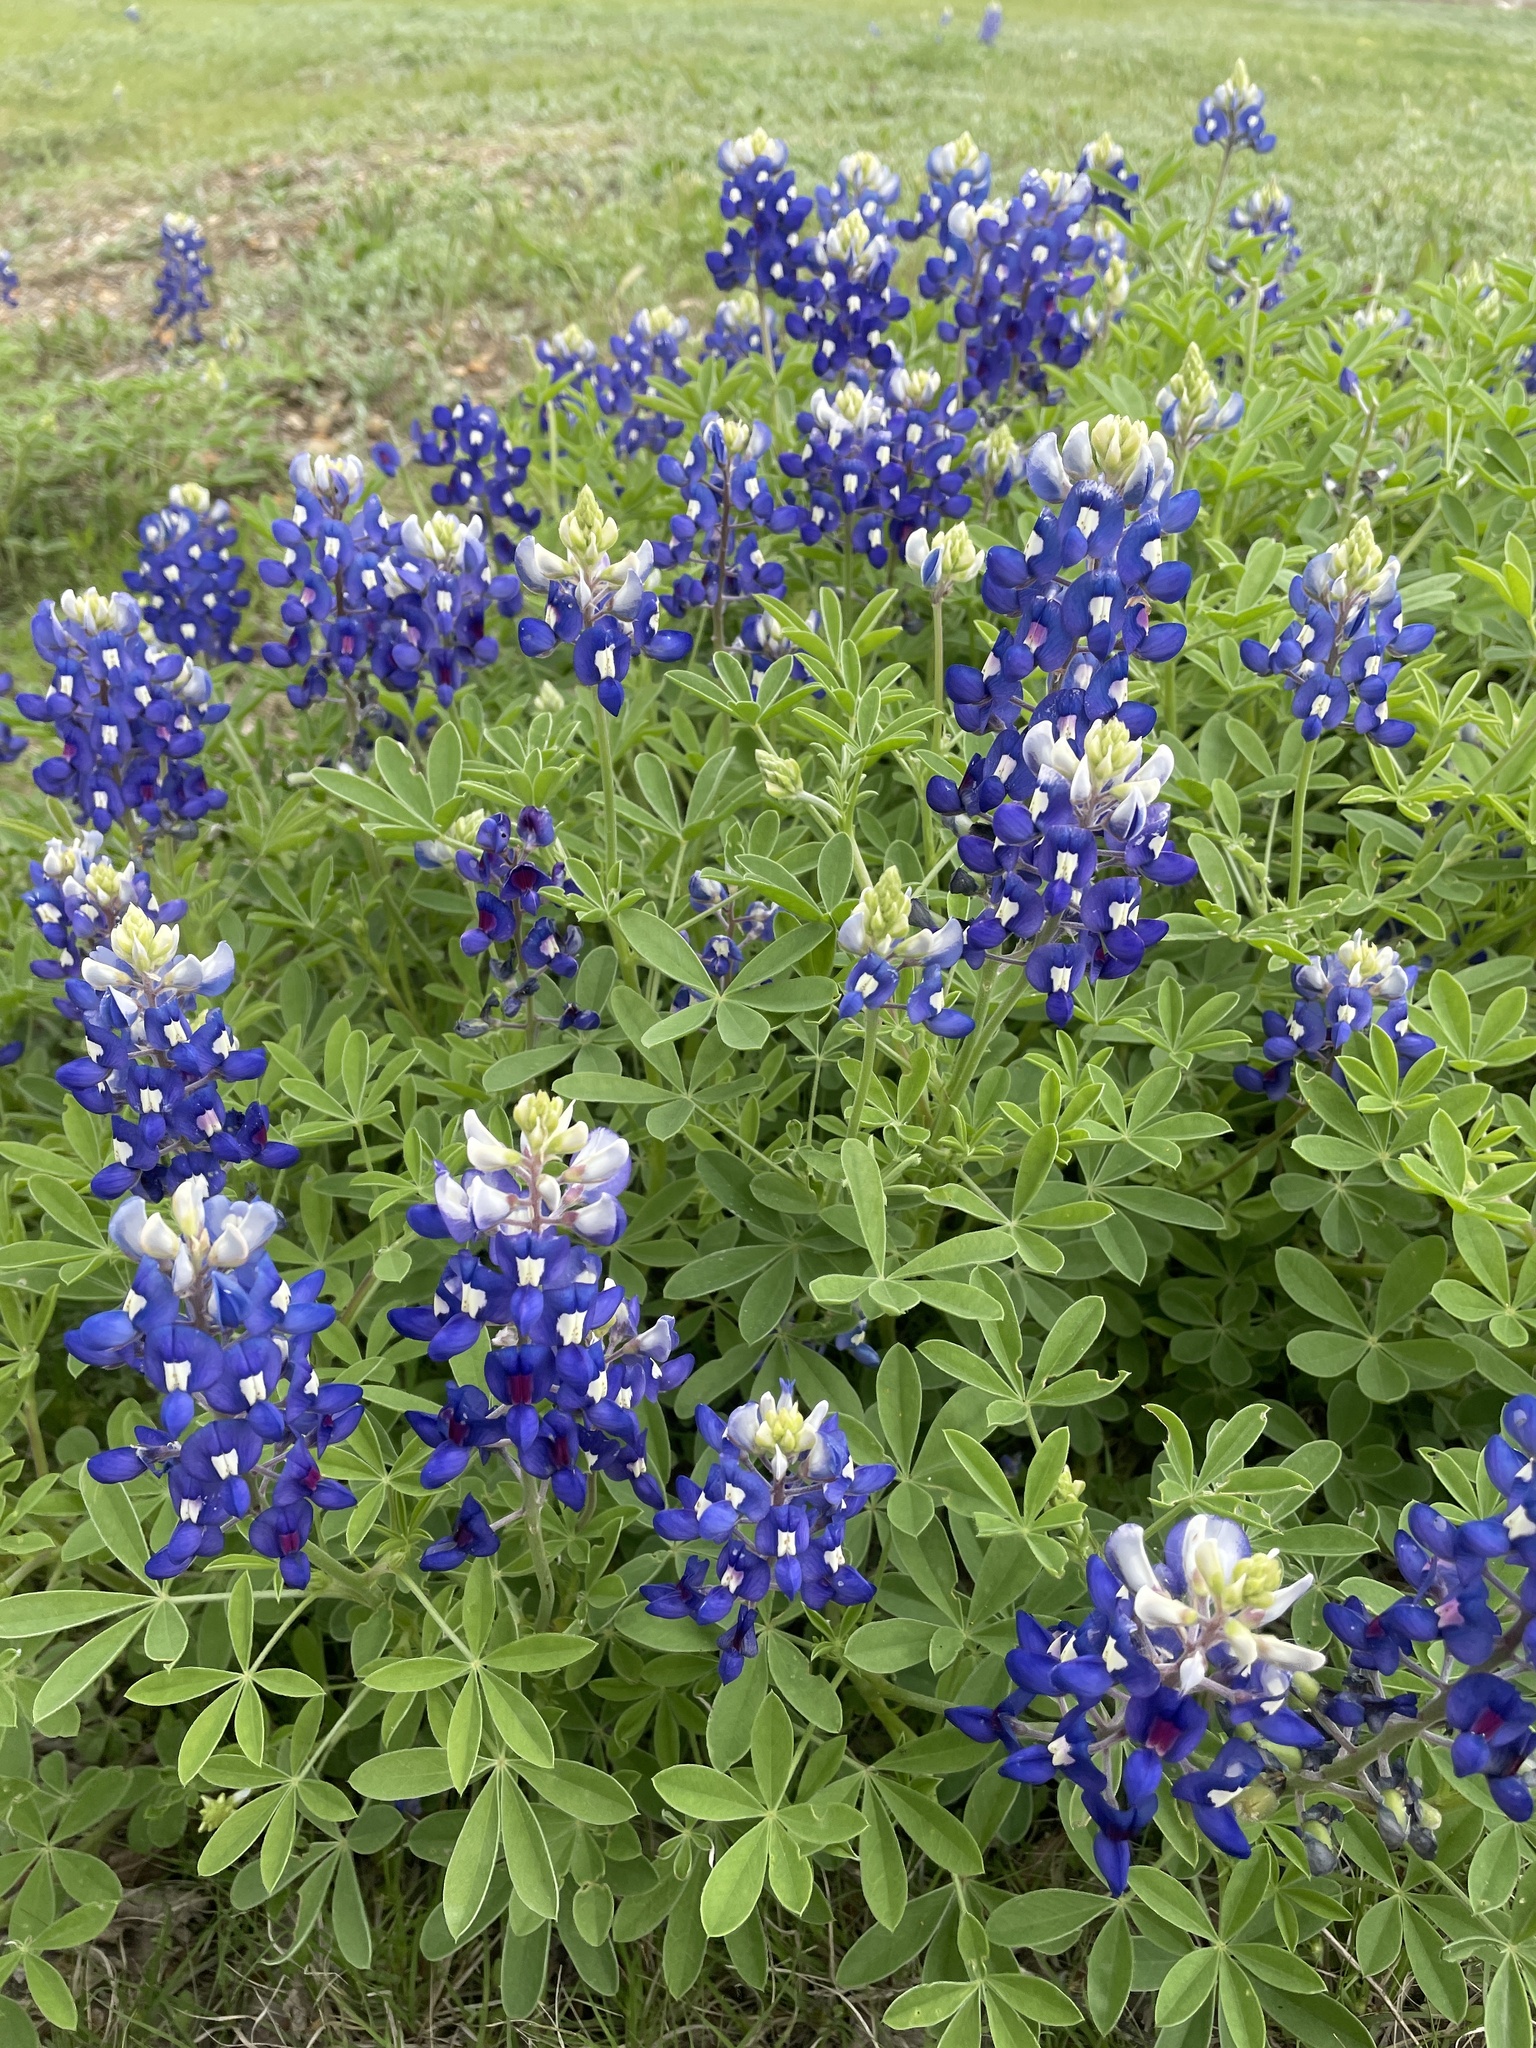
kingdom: Plantae
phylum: Tracheophyta
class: Magnoliopsida
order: Fabales
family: Fabaceae
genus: Lupinus
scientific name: Lupinus texensis
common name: Texas bluebonnet
